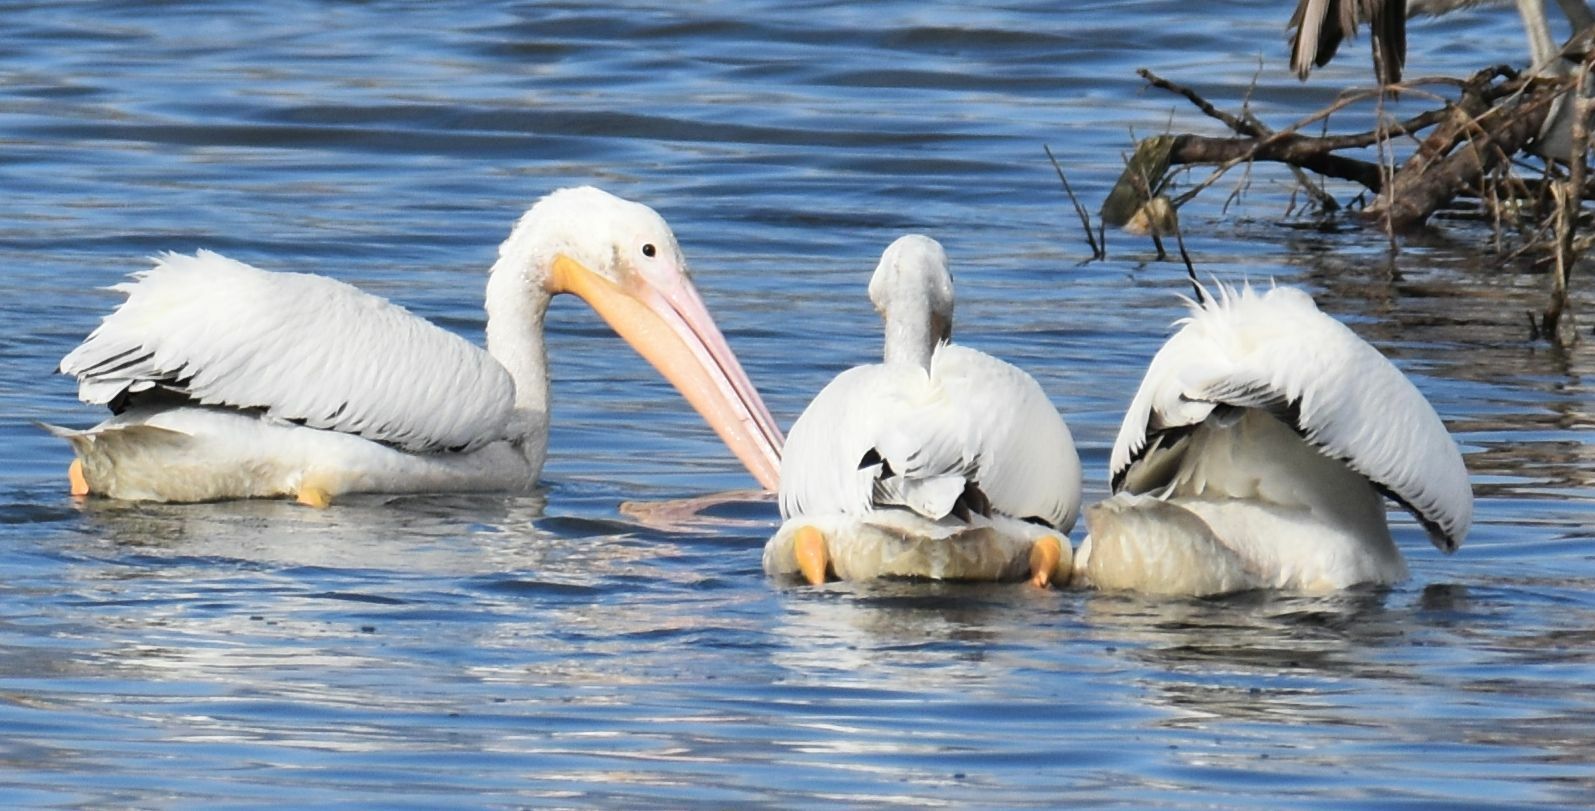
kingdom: Animalia
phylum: Chordata
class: Aves
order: Pelecaniformes
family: Pelecanidae
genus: Pelecanus
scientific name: Pelecanus erythrorhynchos
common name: American white pelican
